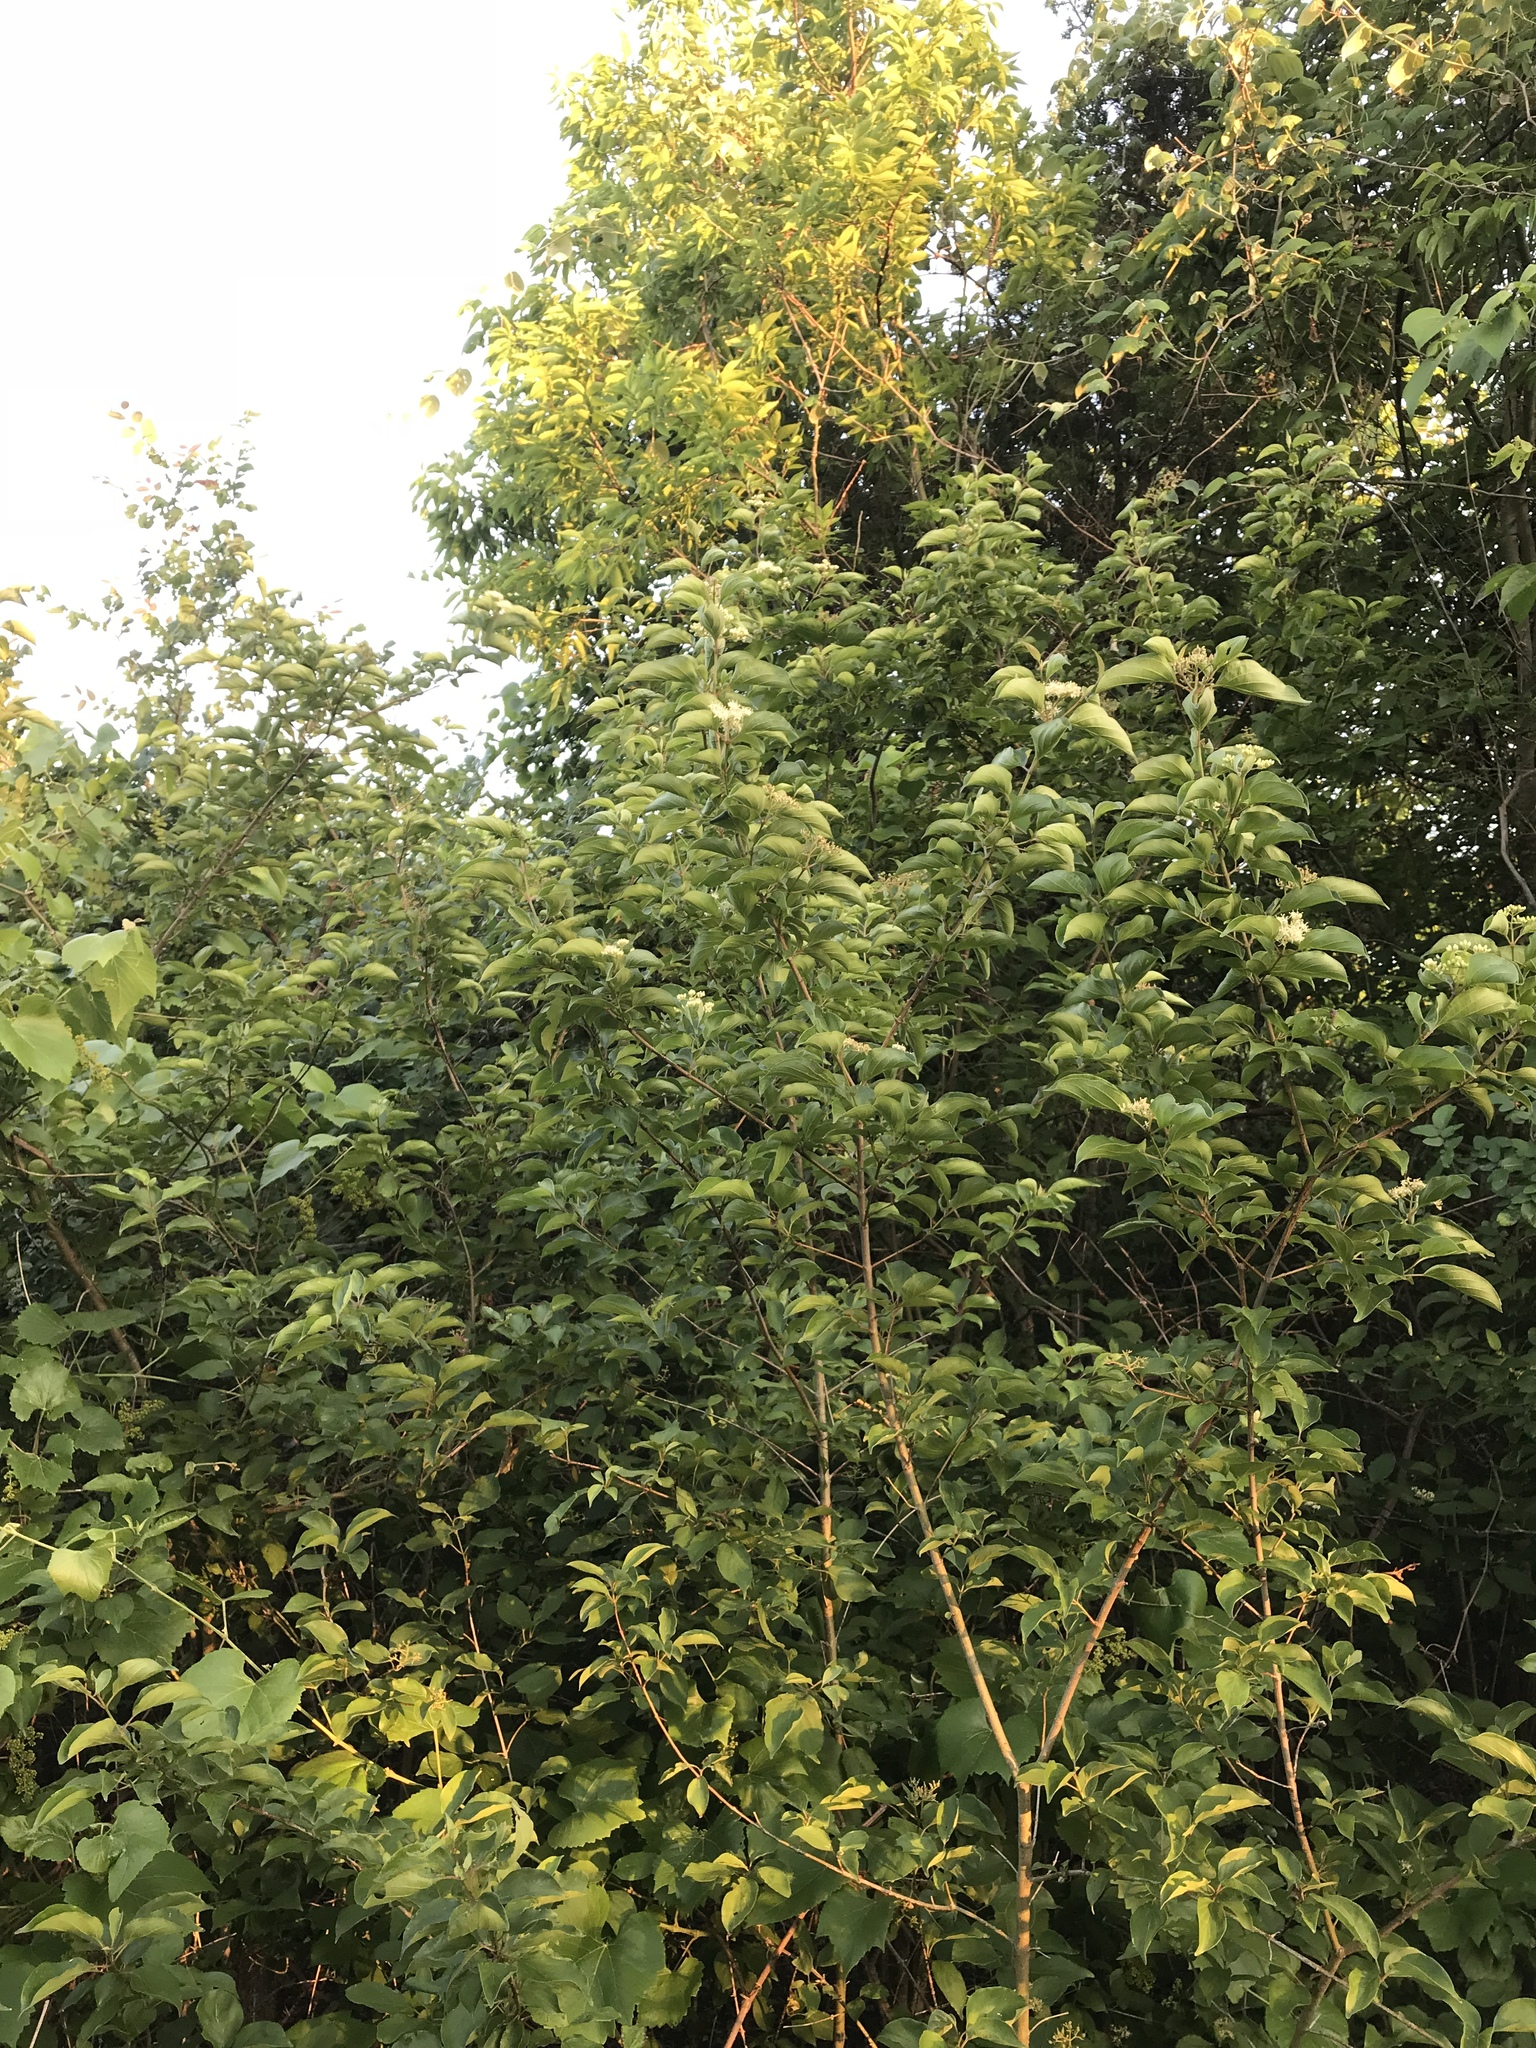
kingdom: Plantae
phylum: Tracheophyta
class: Magnoliopsida
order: Cornales
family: Cornaceae
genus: Cornus
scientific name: Cornus drummondii
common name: Rough-leaf dogwood
